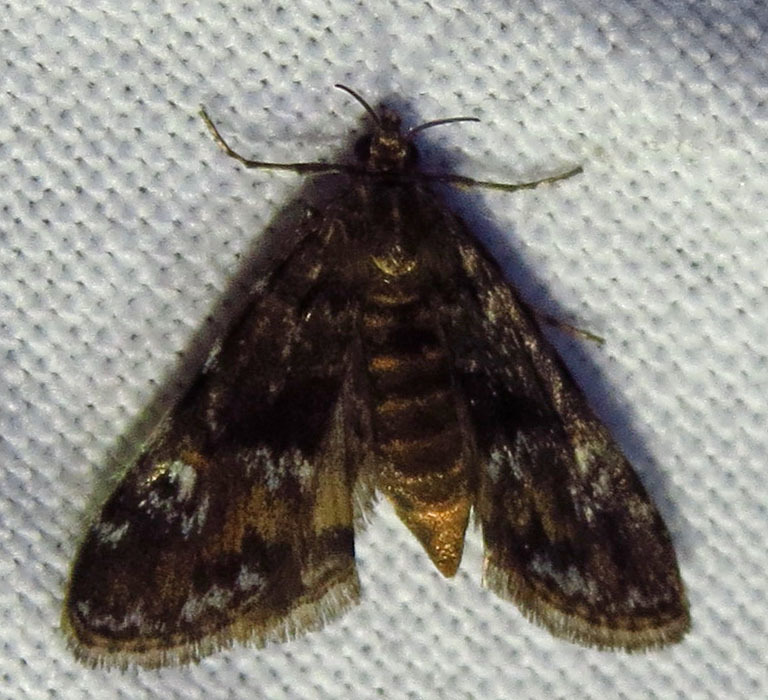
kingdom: Animalia
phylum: Arthropoda
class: Insecta
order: Lepidoptera
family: Crambidae
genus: Elophila
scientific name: Elophila obliteralis
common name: Waterlily leafcutter moth
